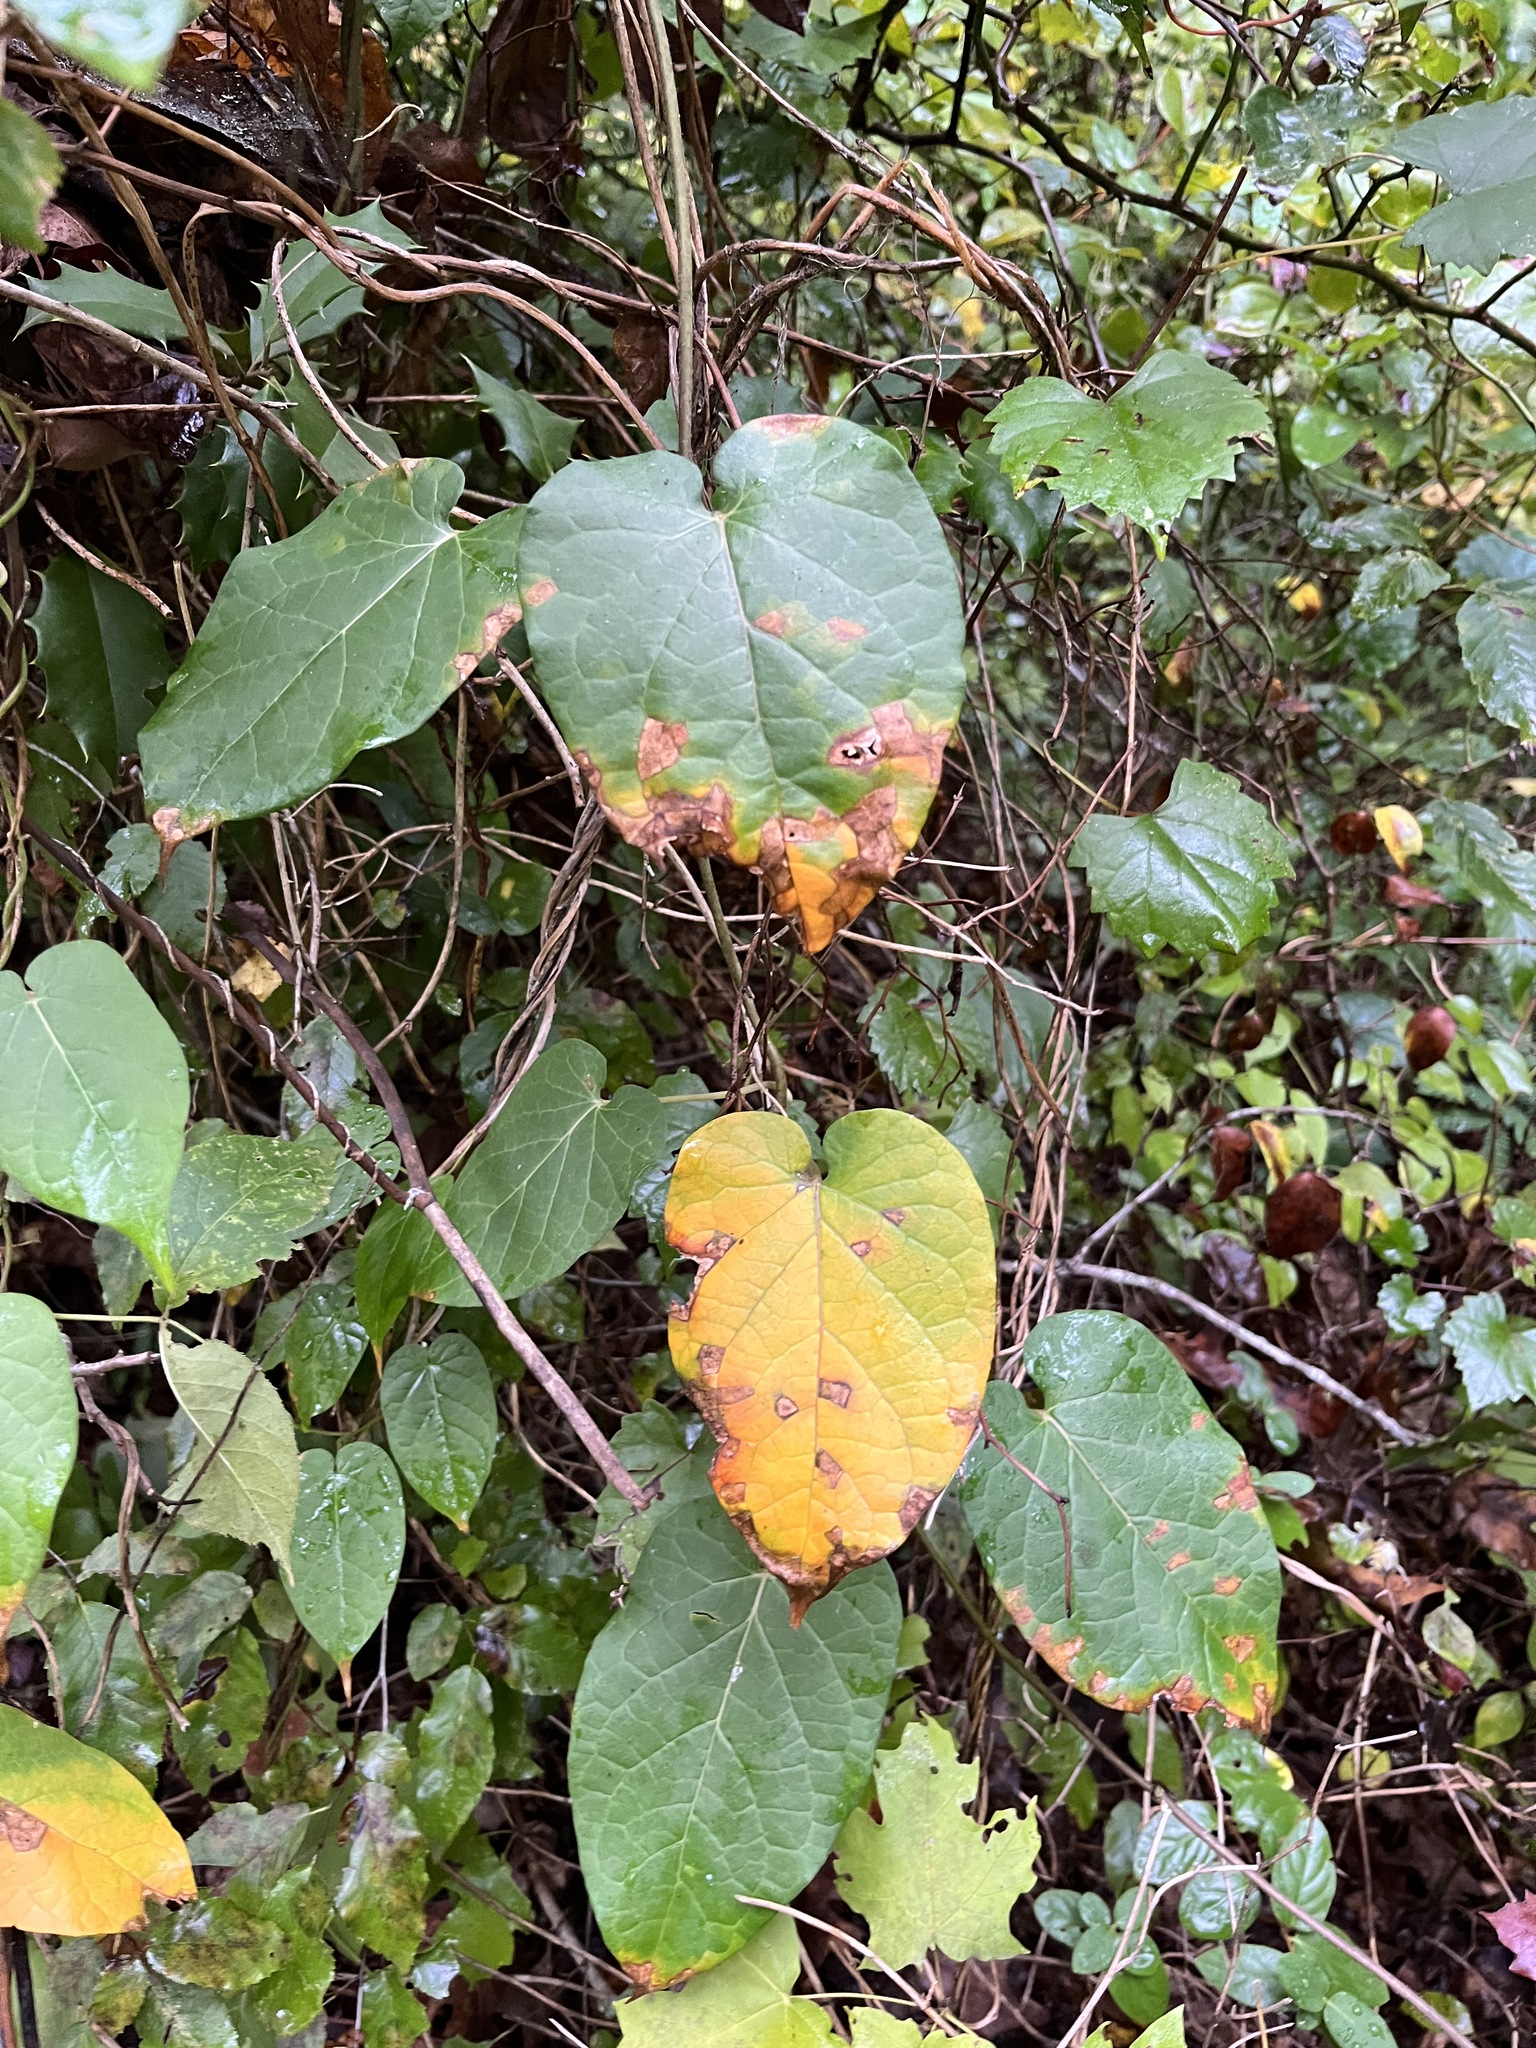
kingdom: Plantae
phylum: Tracheophyta
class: Magnoliopsida
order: Gentianales
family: Apocynaceae
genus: Gonolobus
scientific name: Gonolobus suberosus
